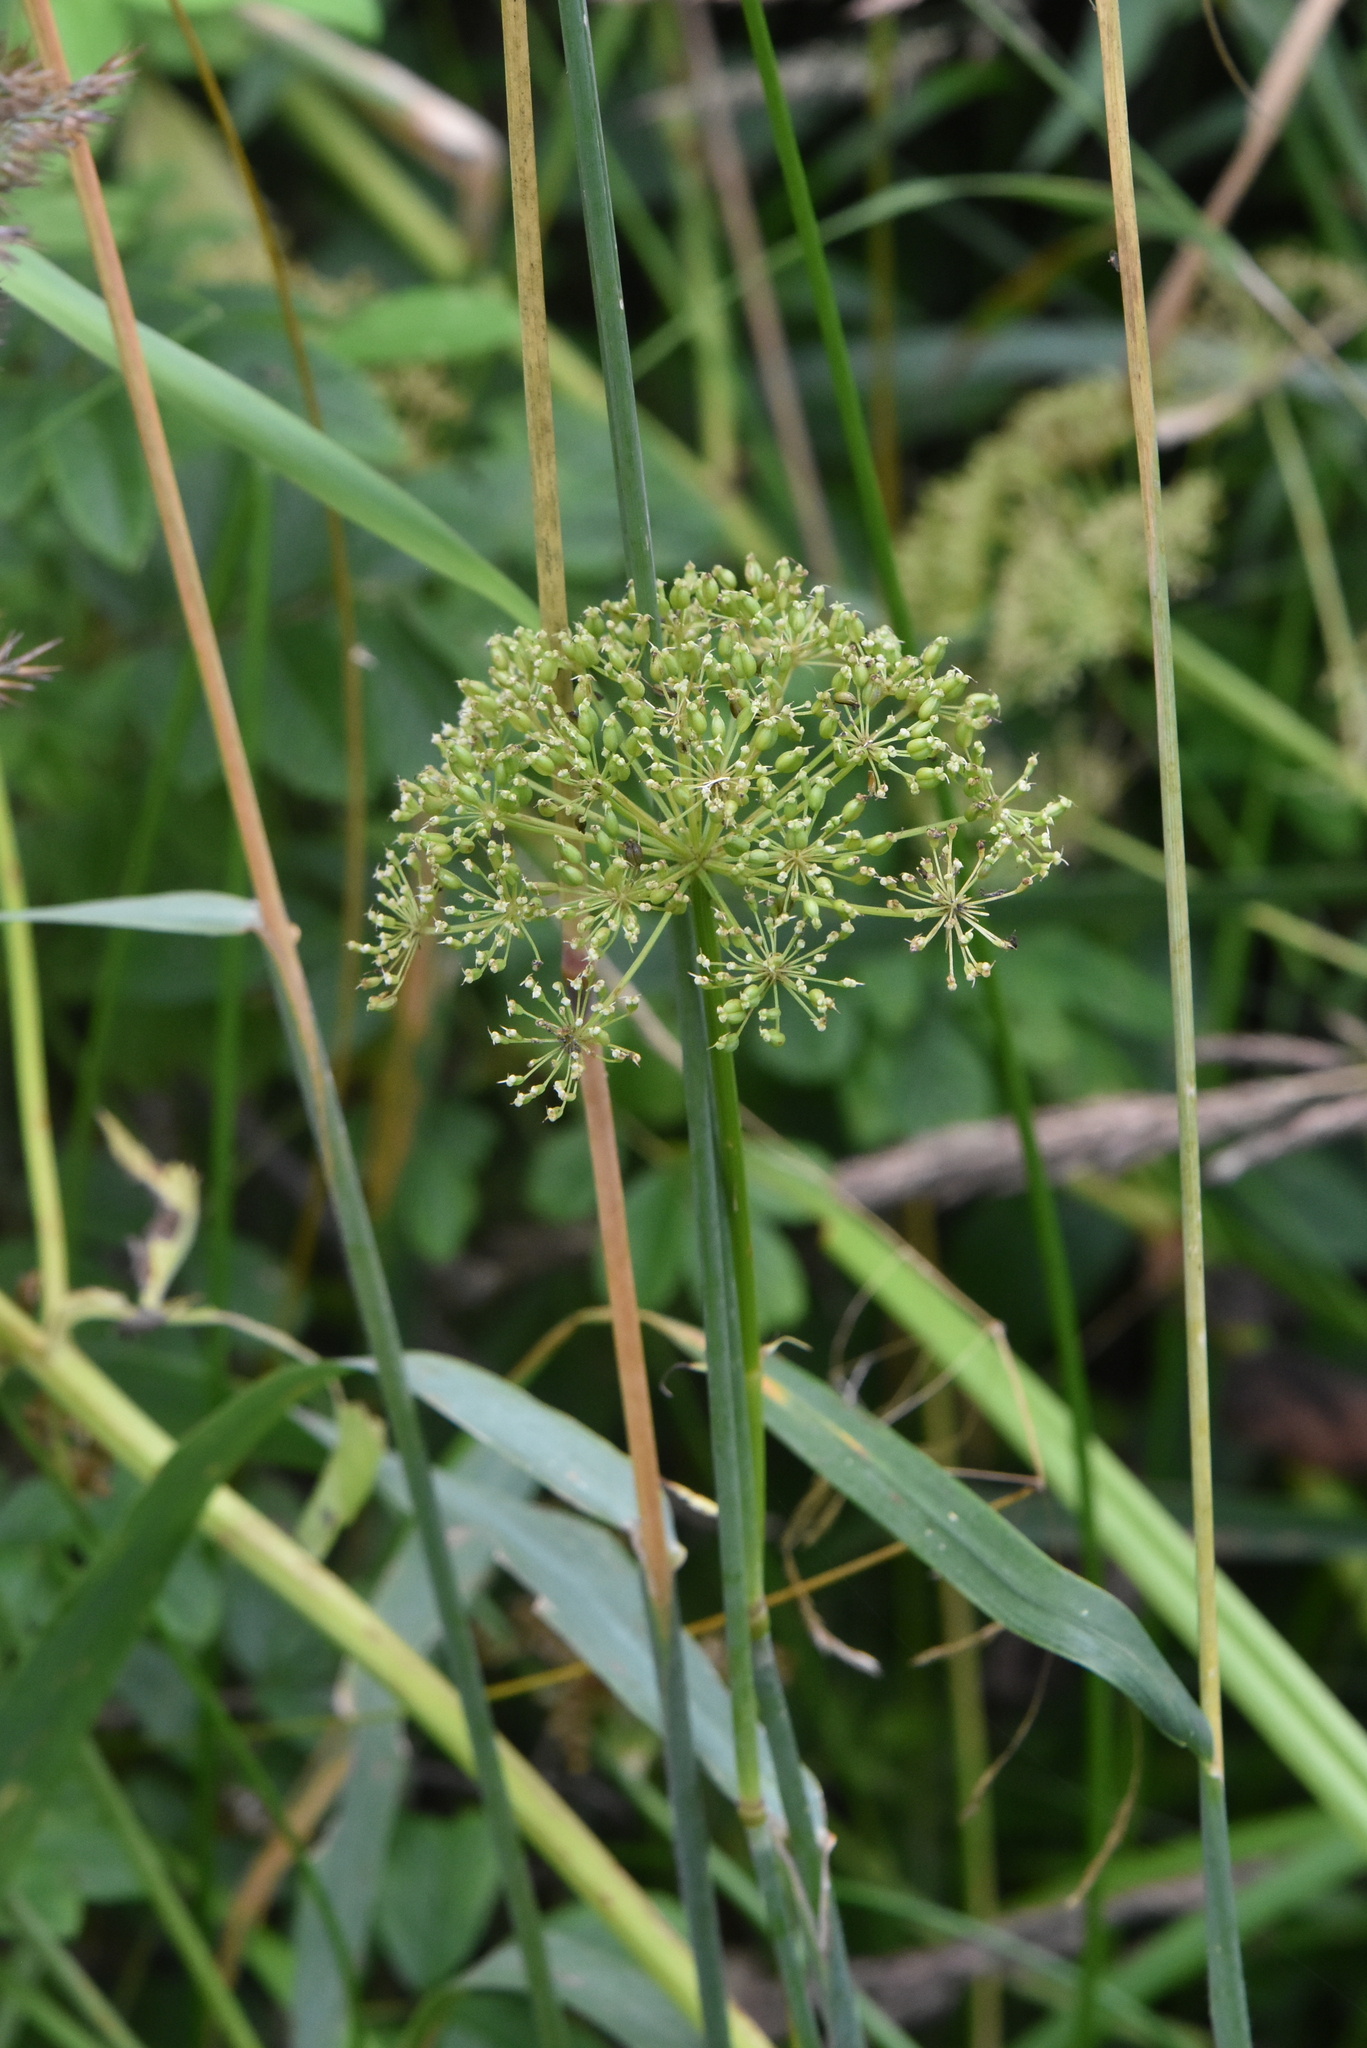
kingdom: Plantae
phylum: Tracheophyta
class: Magnoliopsida
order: Apiales
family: Apiaceae
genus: Aegopodium
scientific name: Aegopodium podagraria
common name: Ground-elder
